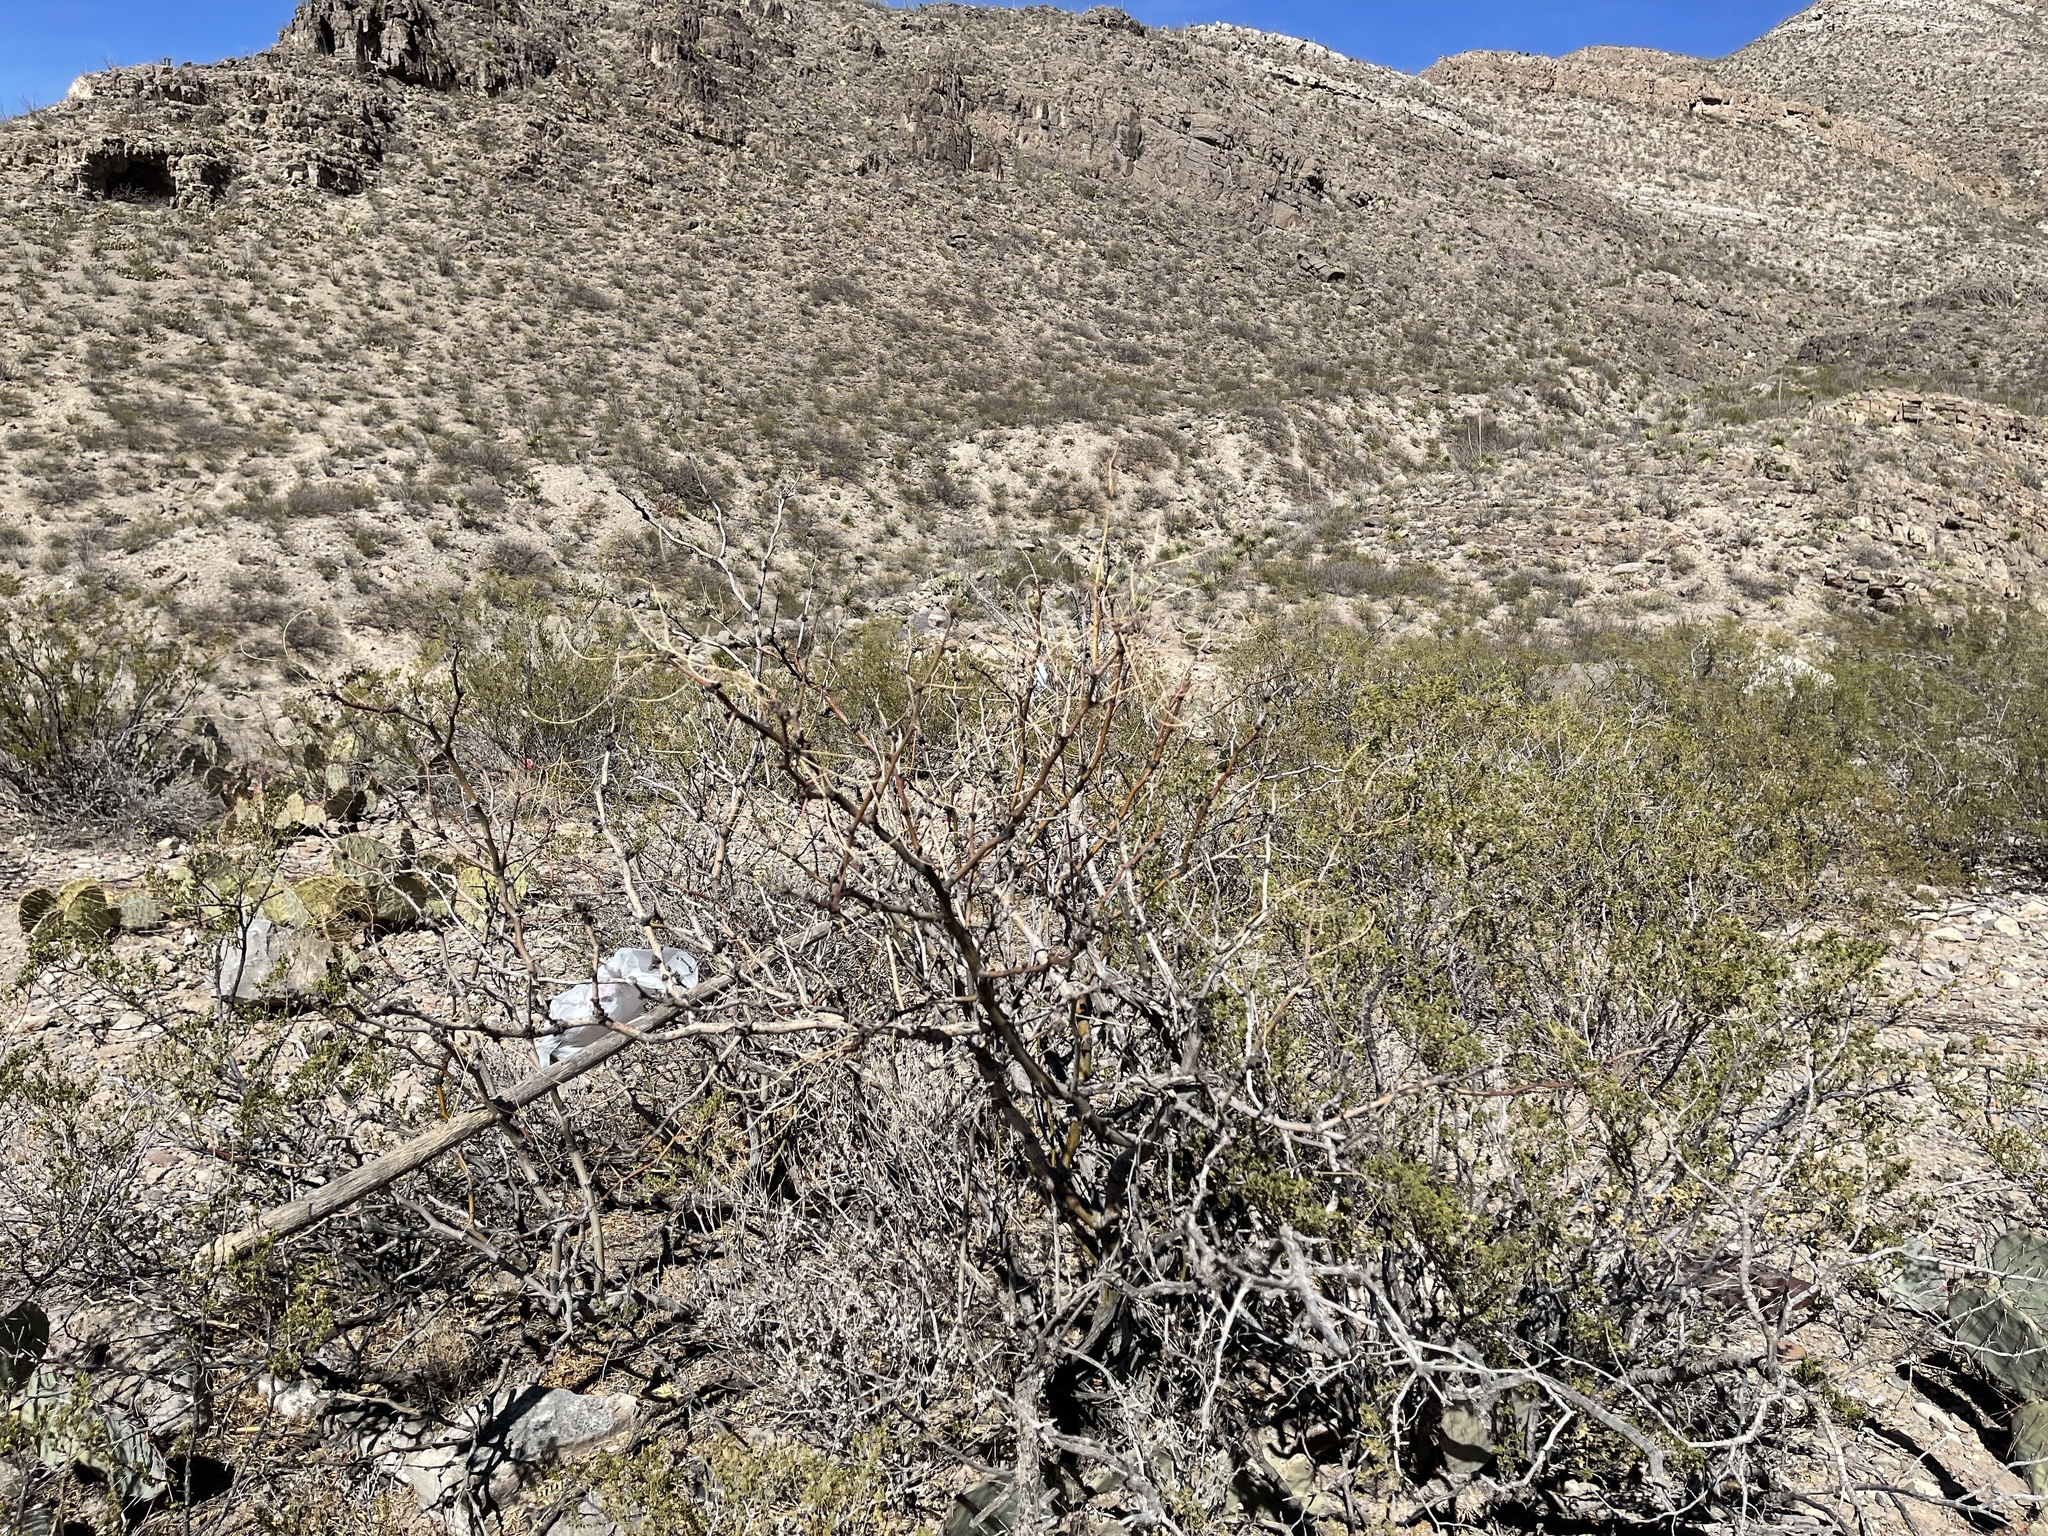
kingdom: Plantae
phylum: Tracheophyta
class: Magnoliopsida
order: Fabales
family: Fabaceae
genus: Prosopis
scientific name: Prosopis glandulosa
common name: Honey mesquite
